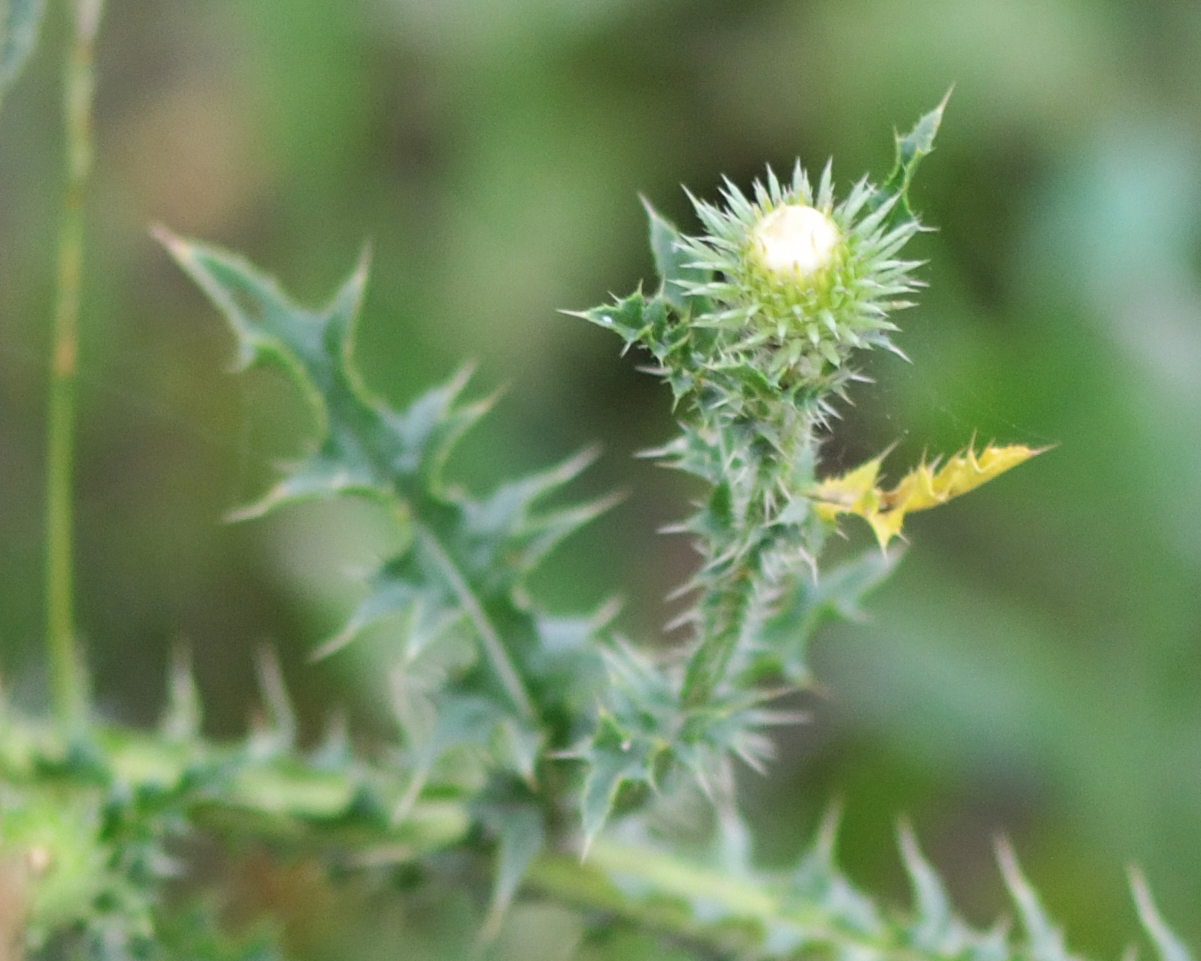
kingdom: Plantae
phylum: Tracheophyta
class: Magnoliopsida
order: Asterales
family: Asteraceae
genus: Carduus
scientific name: Carduus acanthoides
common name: Plumeless thistle
